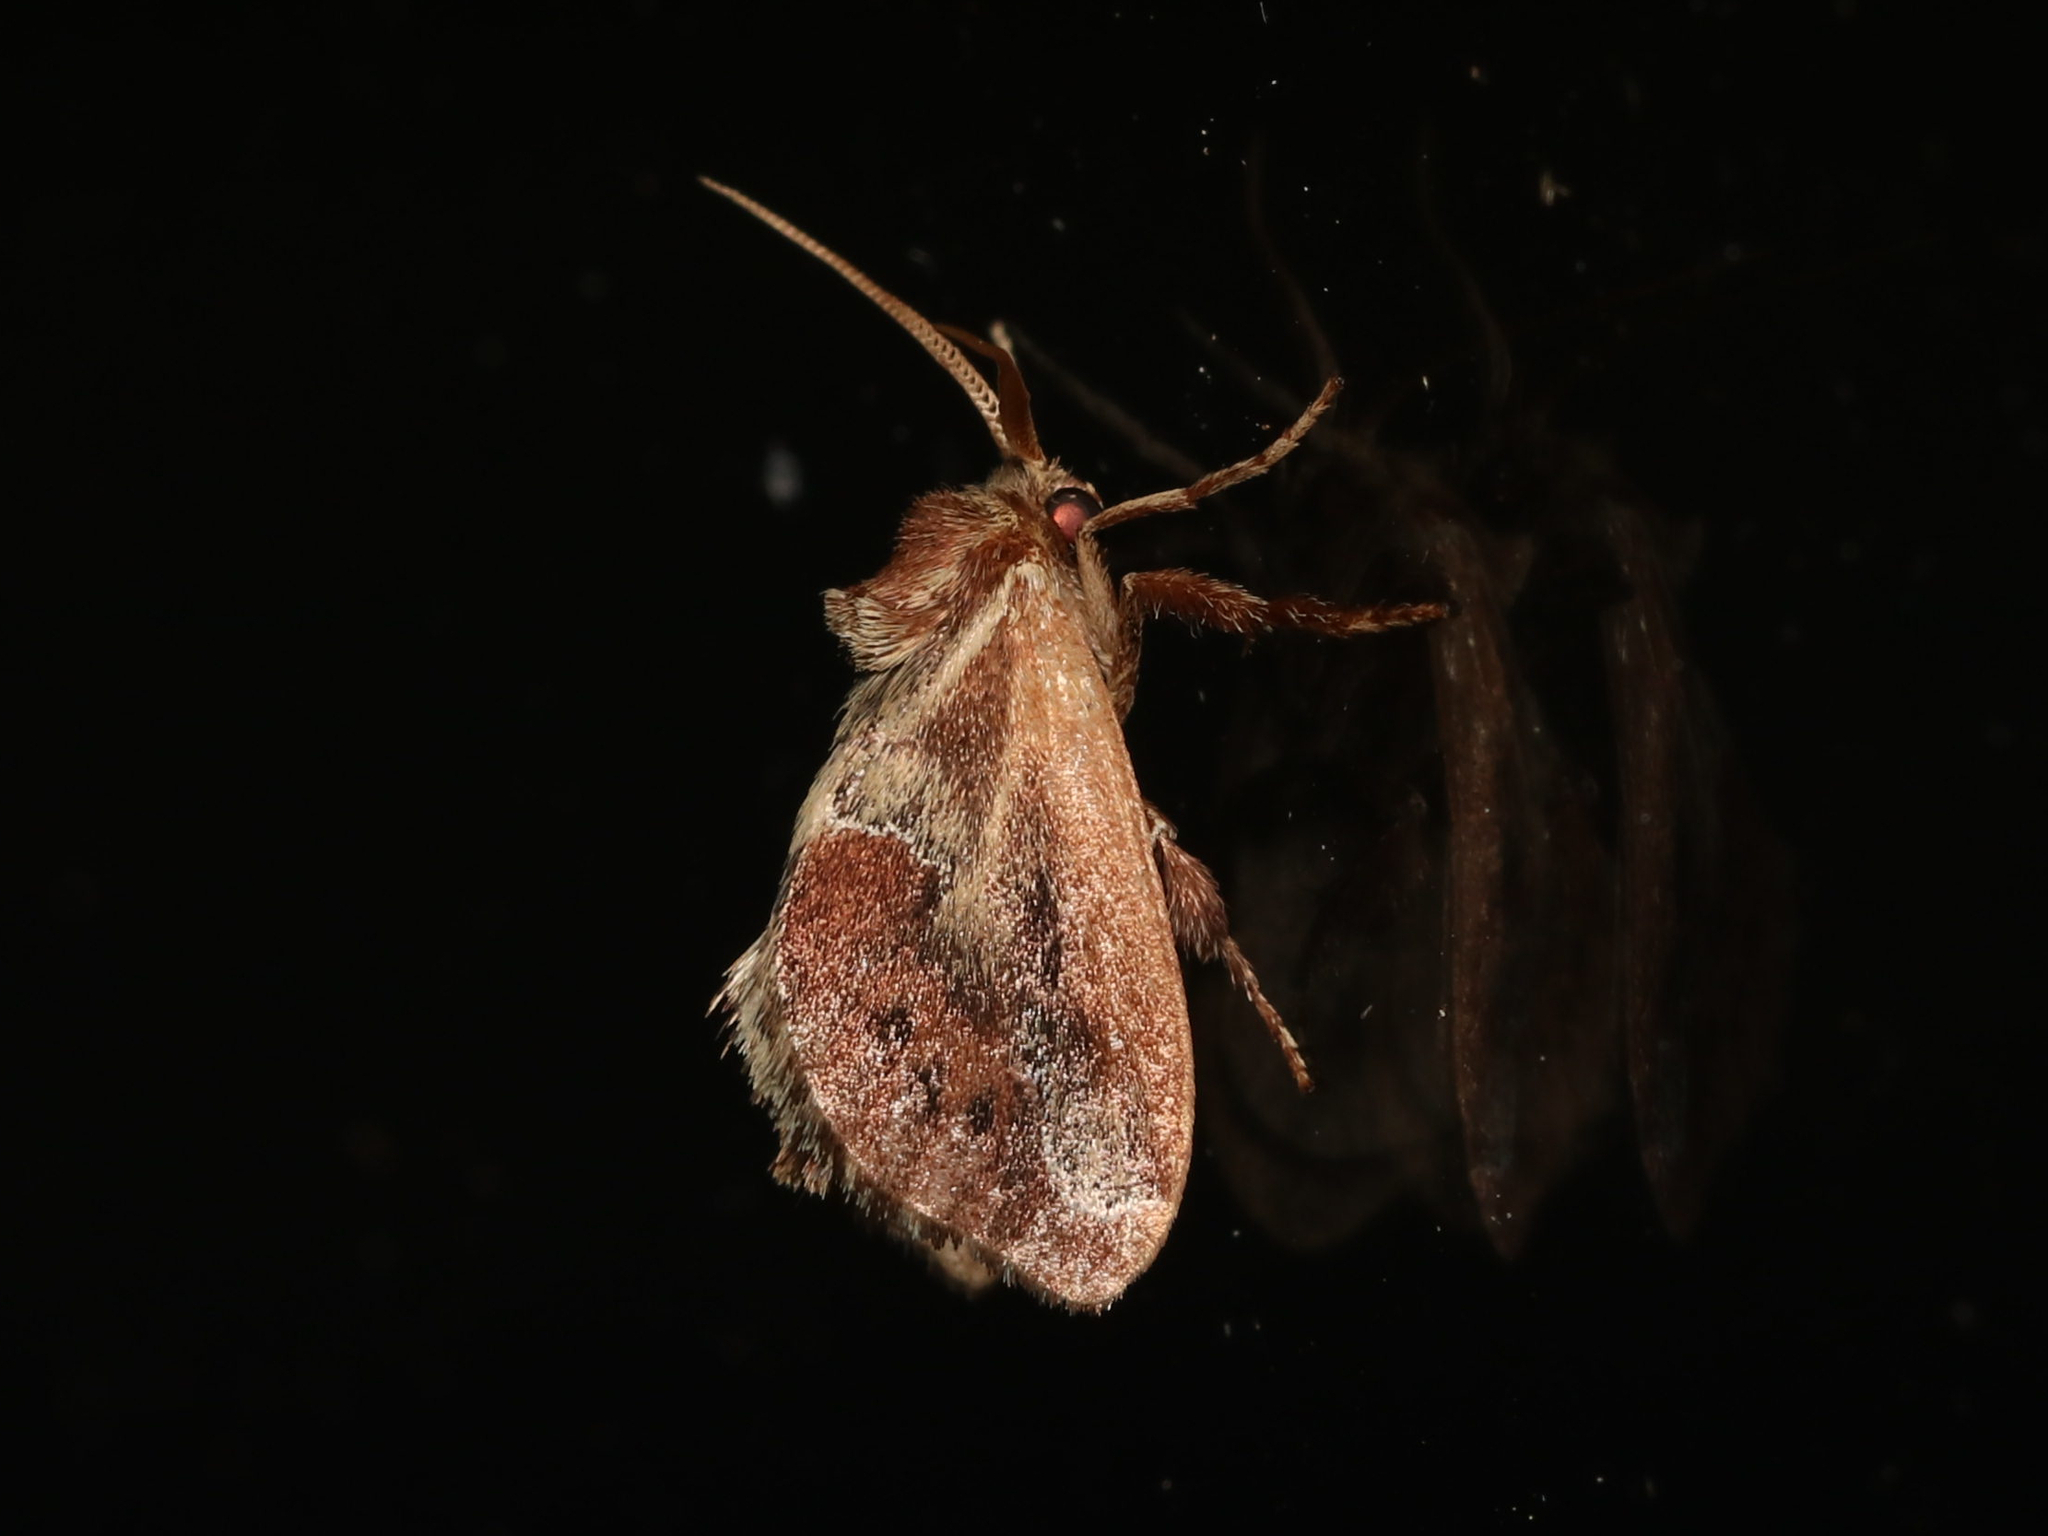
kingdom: Animalia
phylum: Arthropoda
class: Insecta
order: Lepidoptera
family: Limacodidae
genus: Adoneta
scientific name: Adoneta spinuloides
